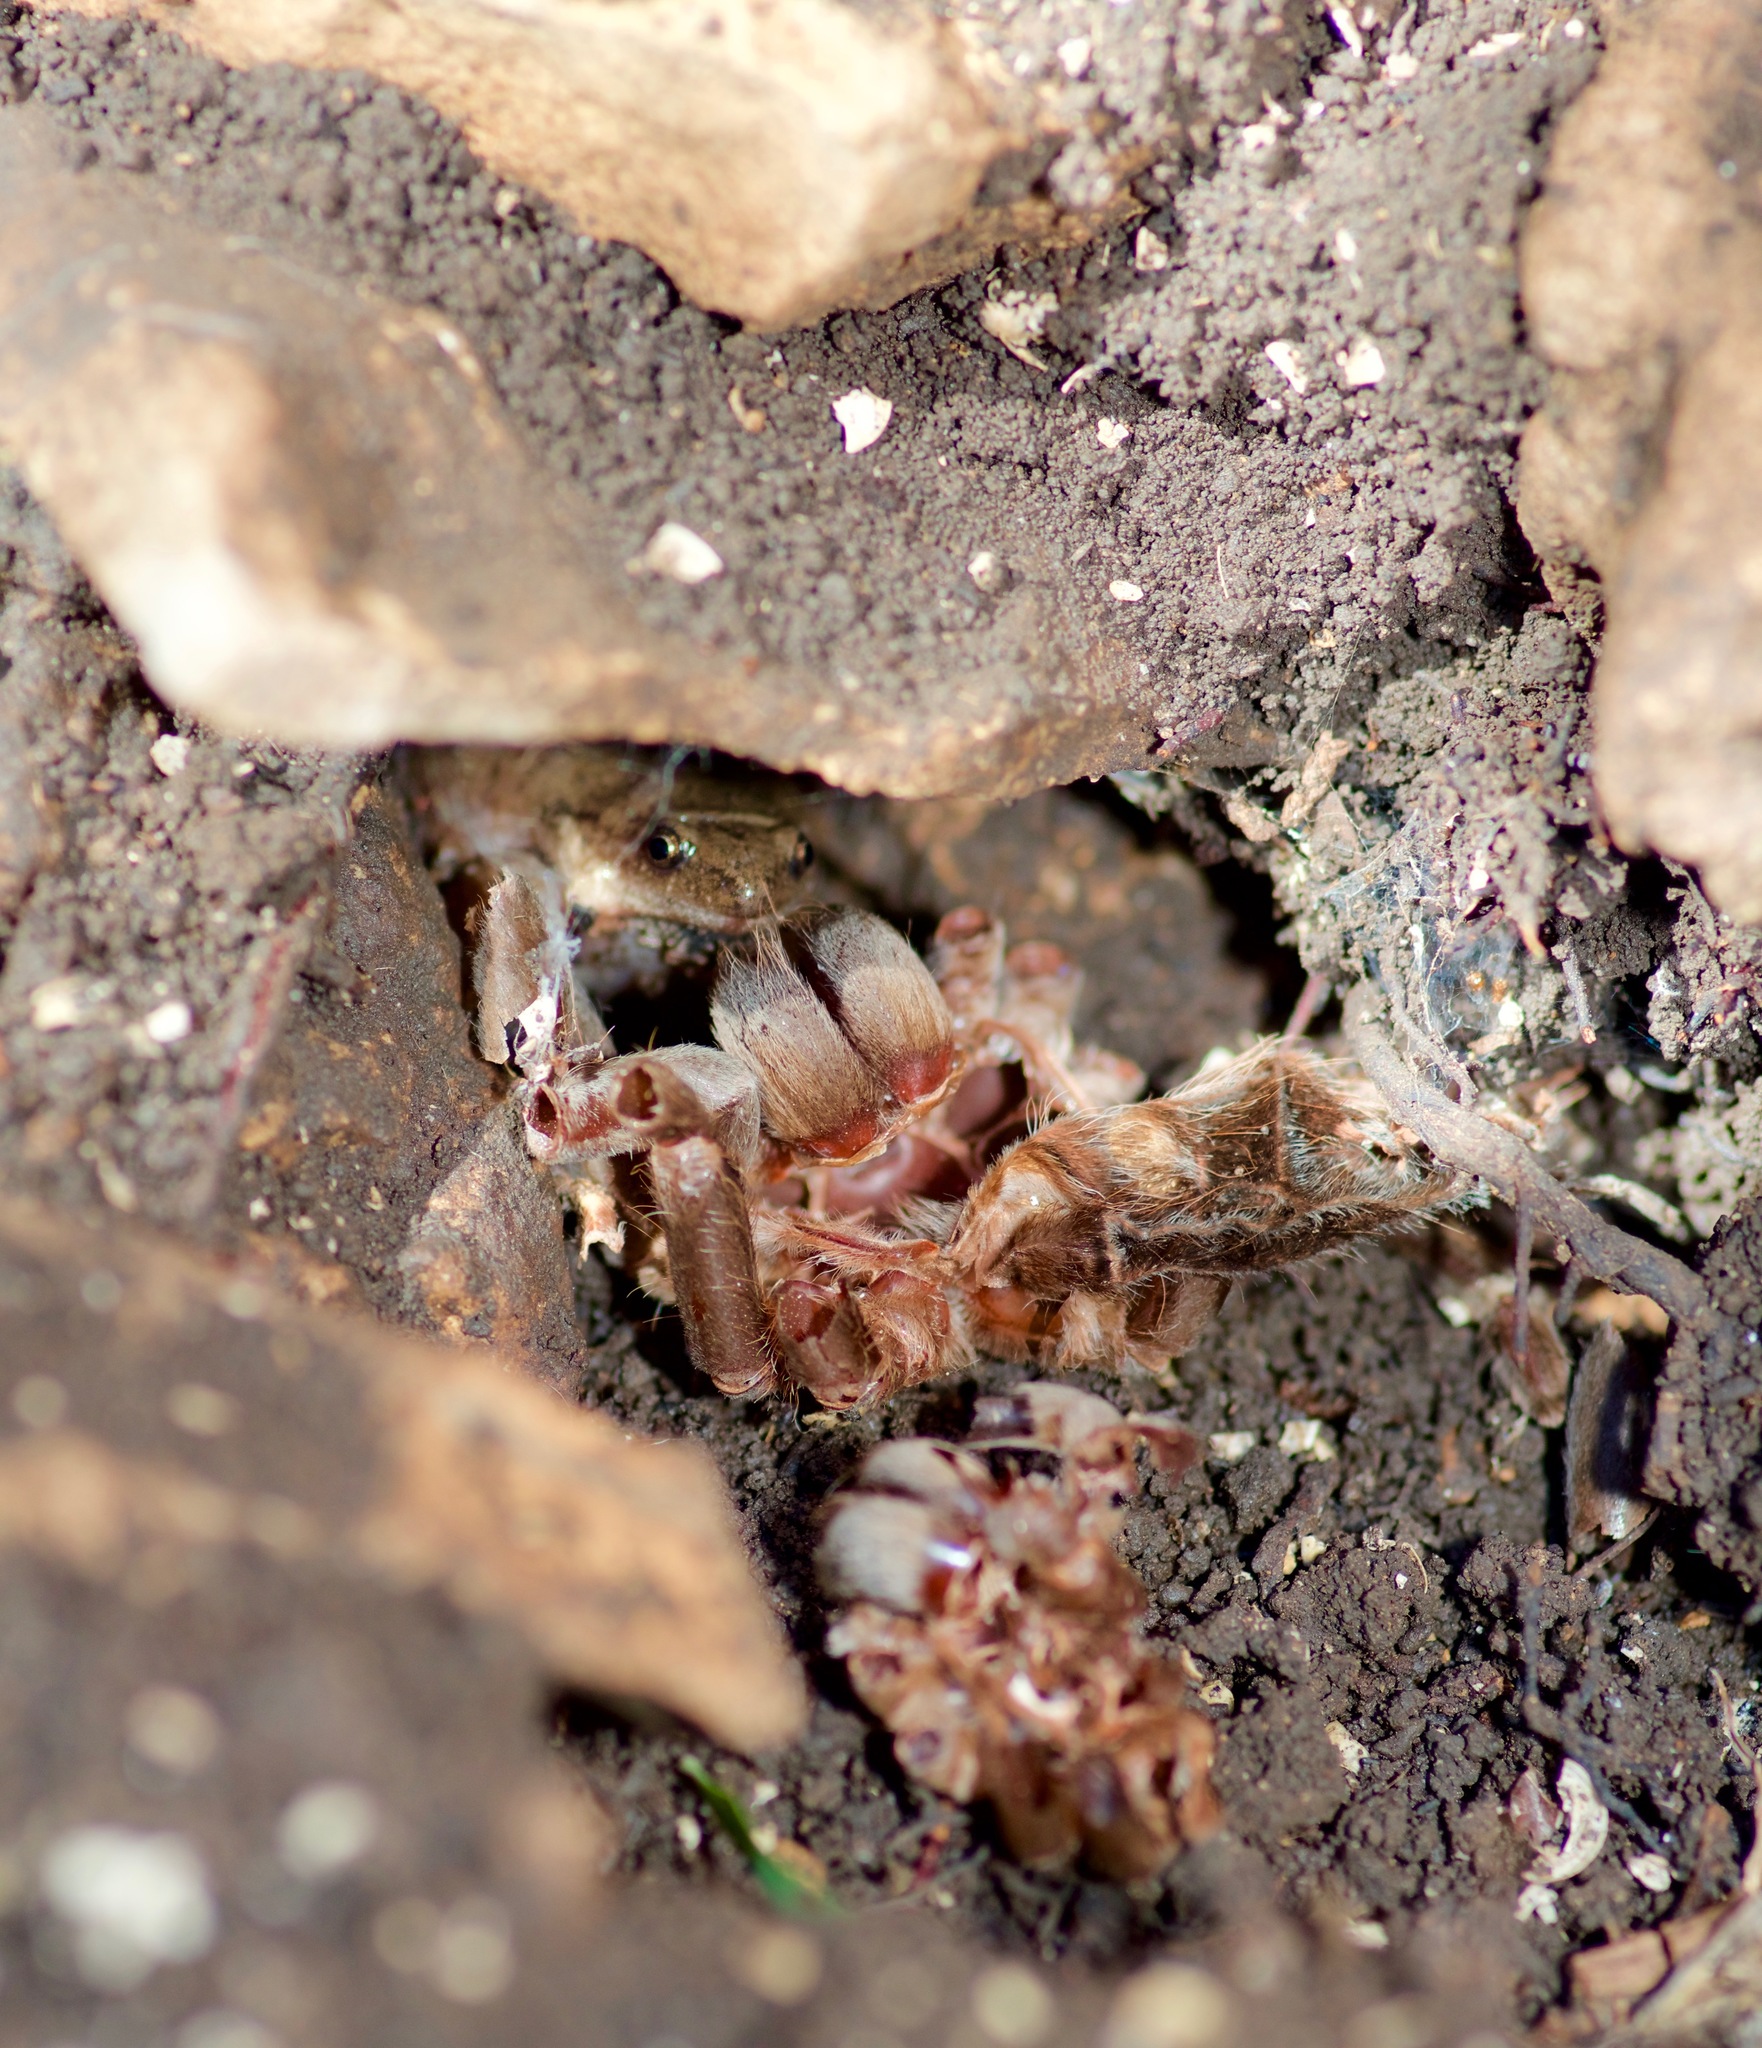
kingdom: Animalia
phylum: Chordata
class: Amphibia
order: Anura
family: Microhylidae
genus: Gastrophryne
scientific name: Gastrophryne olivacea
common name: Great plains narrow-mouthed toad
